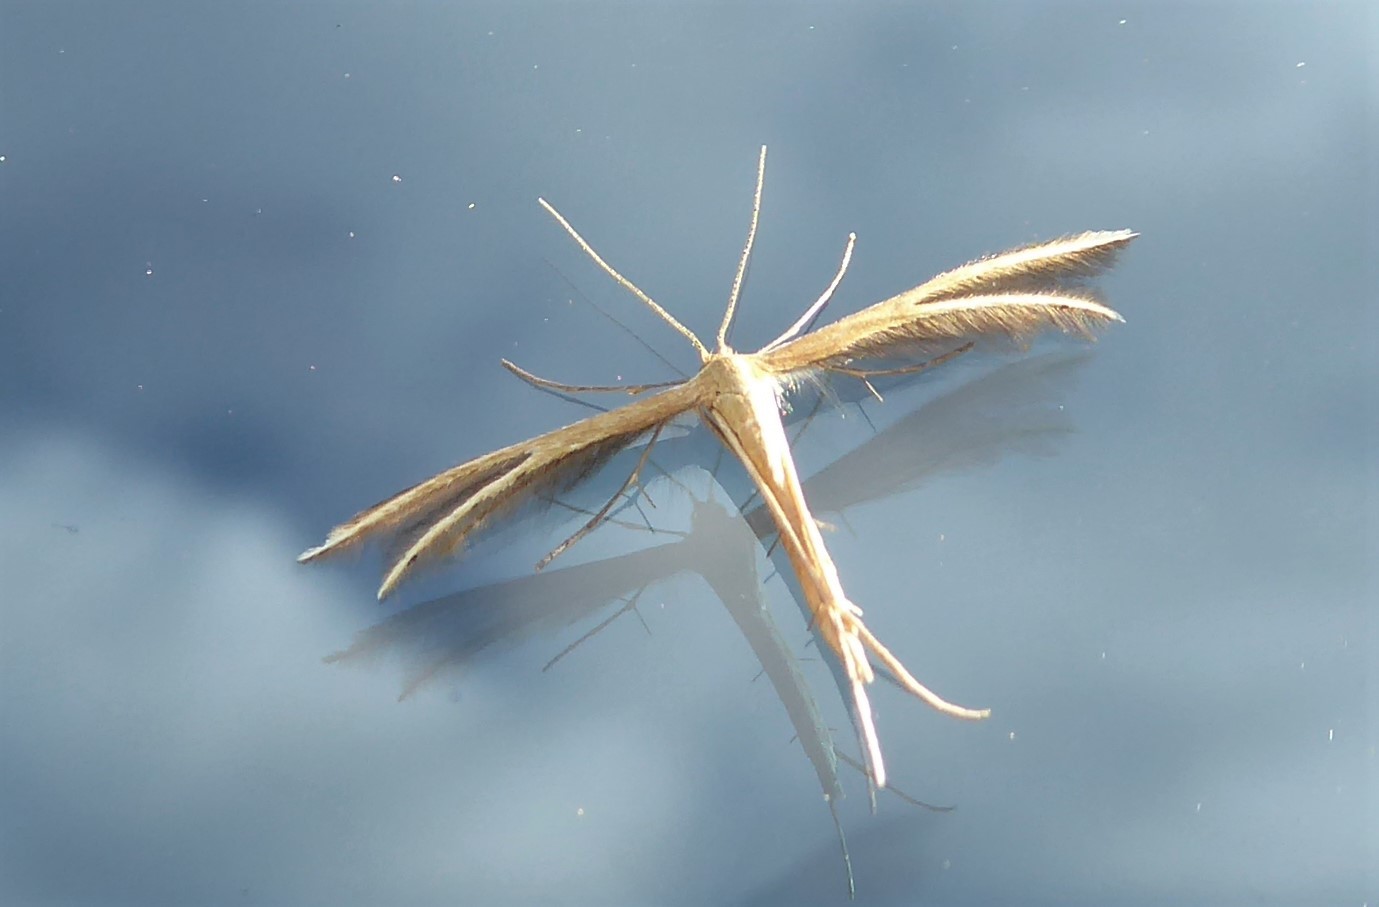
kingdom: Animalia
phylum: Arthropoda
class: Insecta
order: Lepidoptera
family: Pterophoridae
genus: Pterophorus
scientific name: Pterophorus innotatalis
